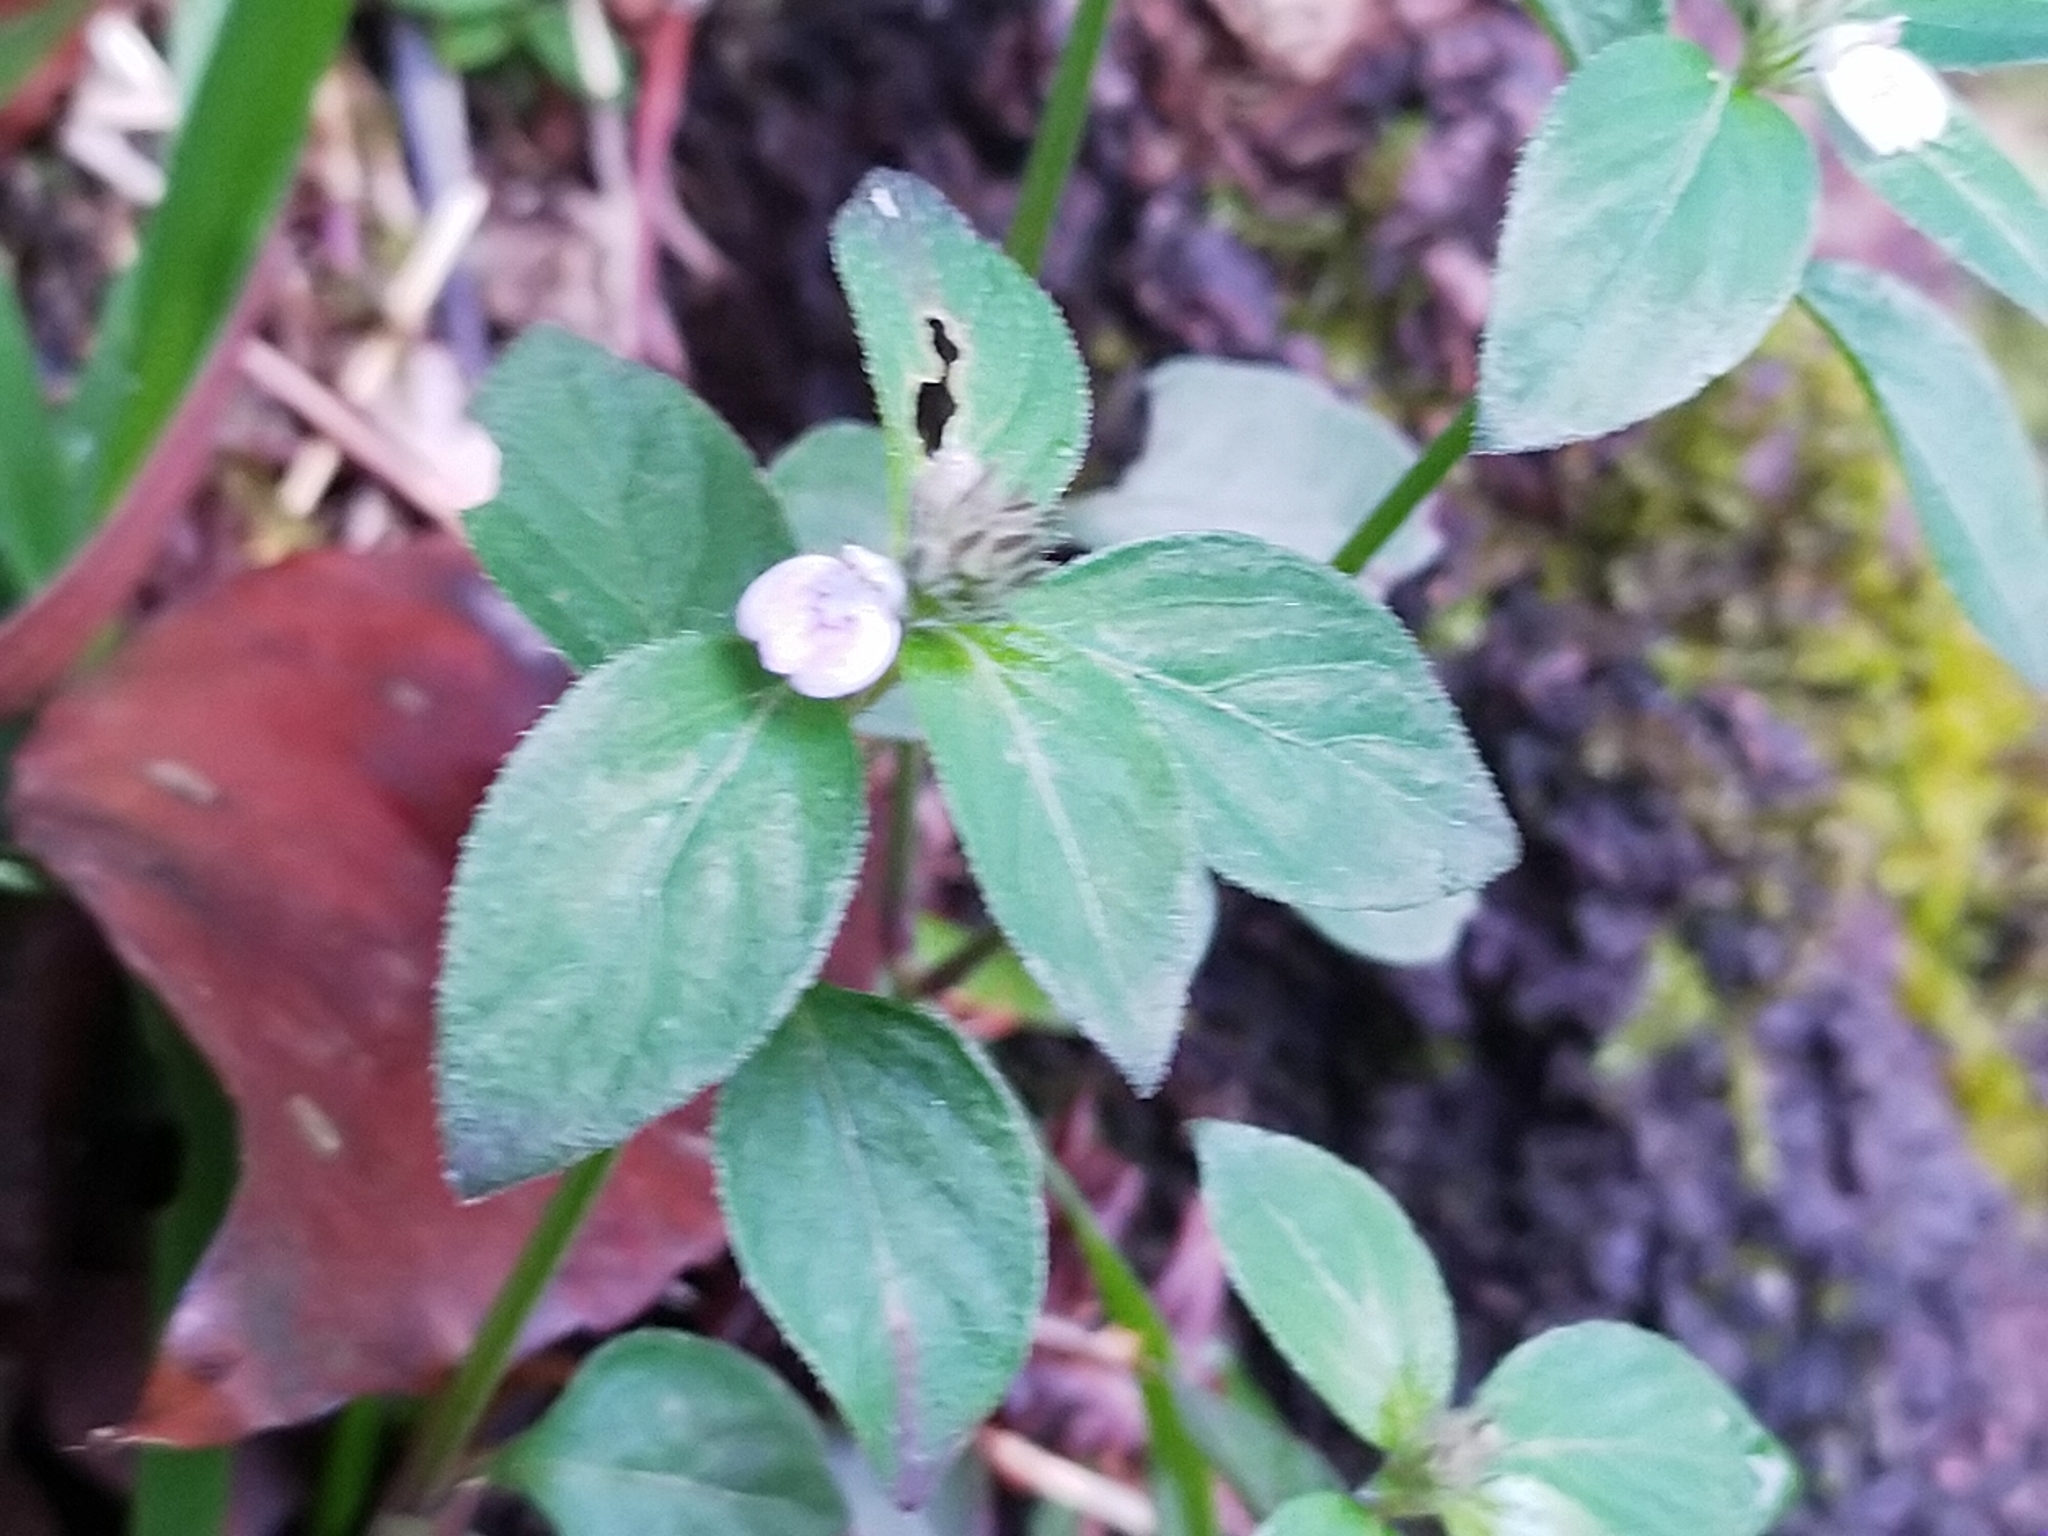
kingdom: Plantae
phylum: Tracheophyta
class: Magnoliopsida
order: Lamiales
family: Acanthaceae
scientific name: Acanthaceae
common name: Acanthaceae
